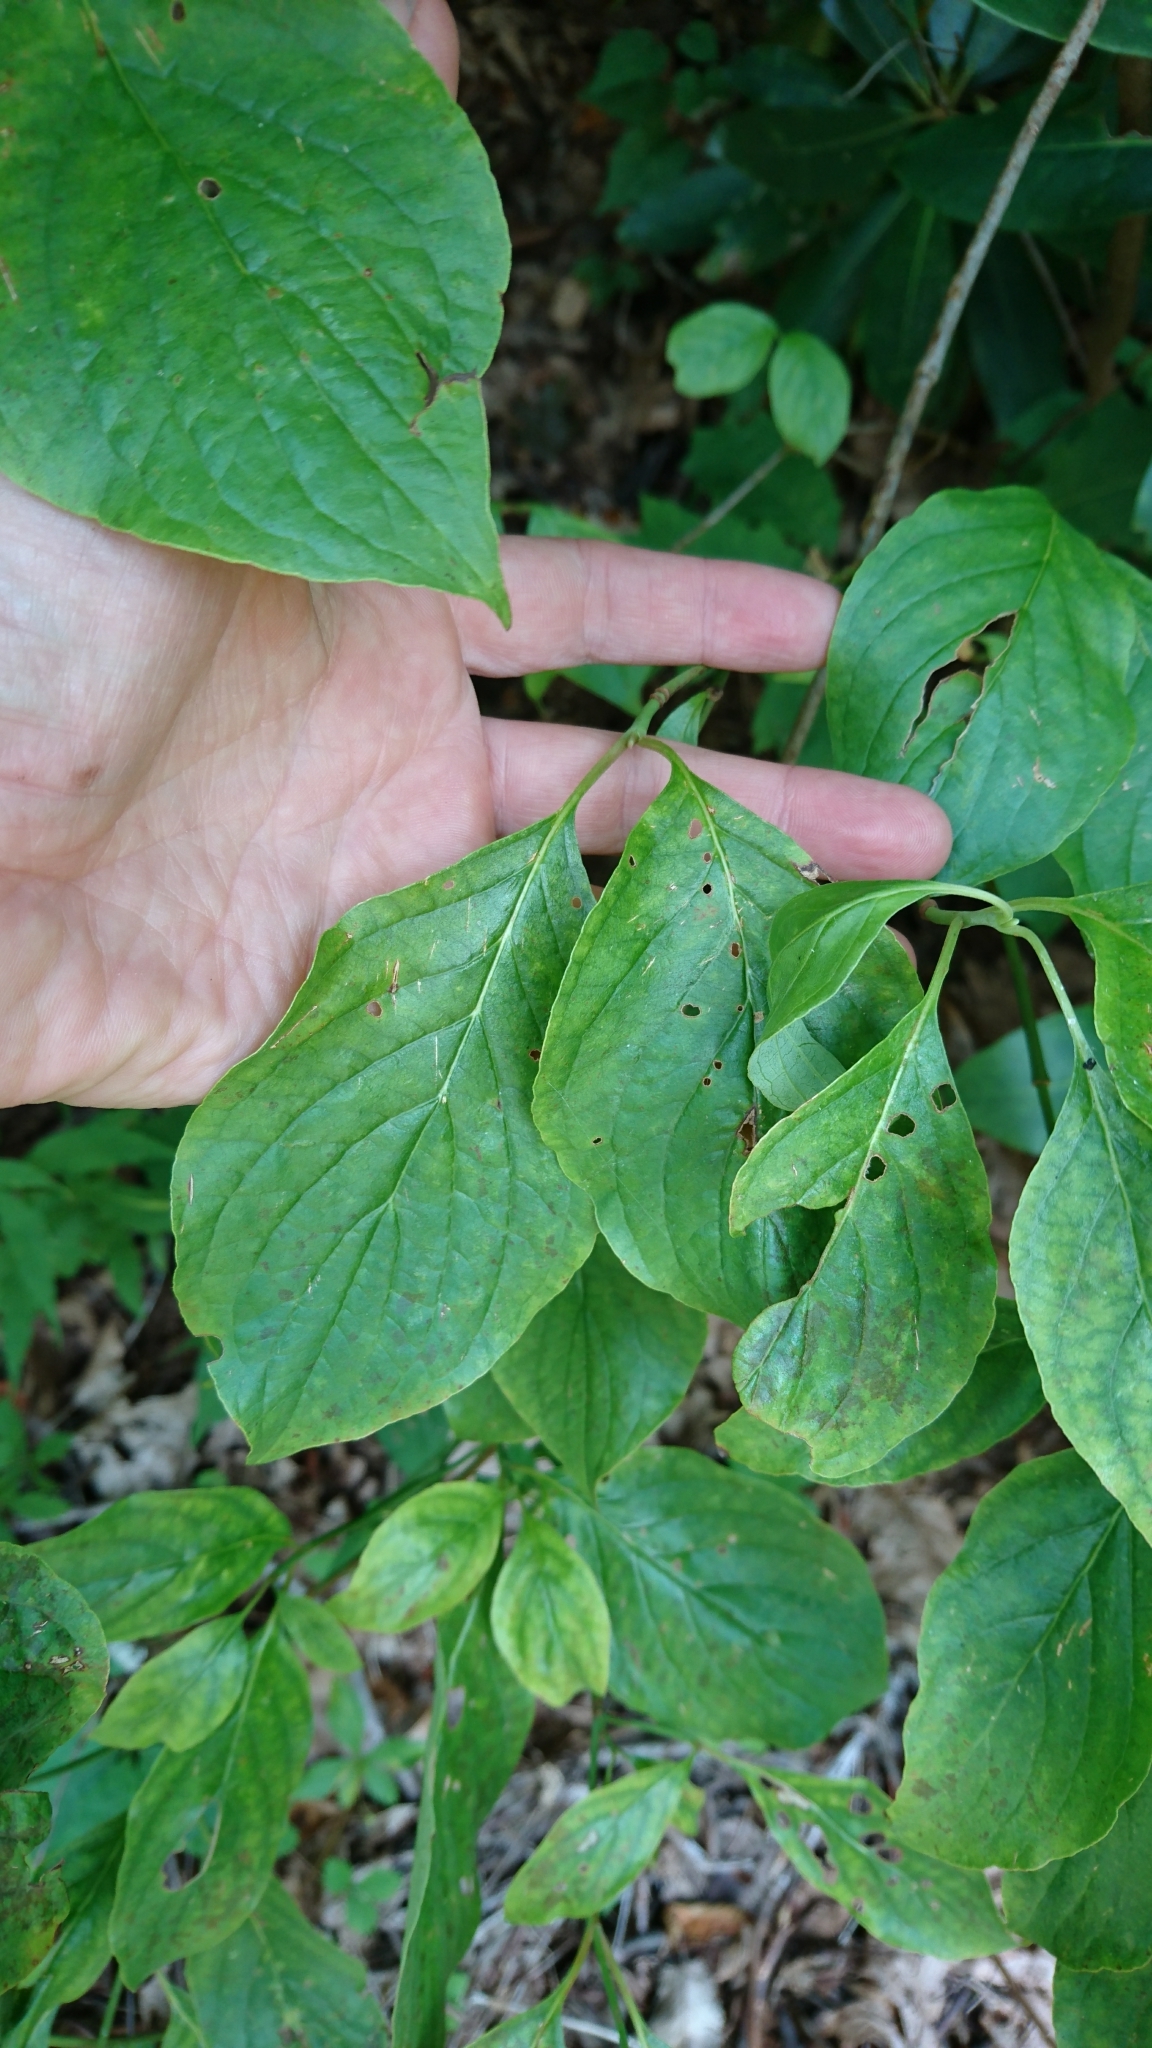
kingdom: Plantae
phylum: Tracheophyta
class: Magnoliopsida
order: Cornales
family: Cornaceae
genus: Cornus
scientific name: Cornus florida
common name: Flowering dogwood
